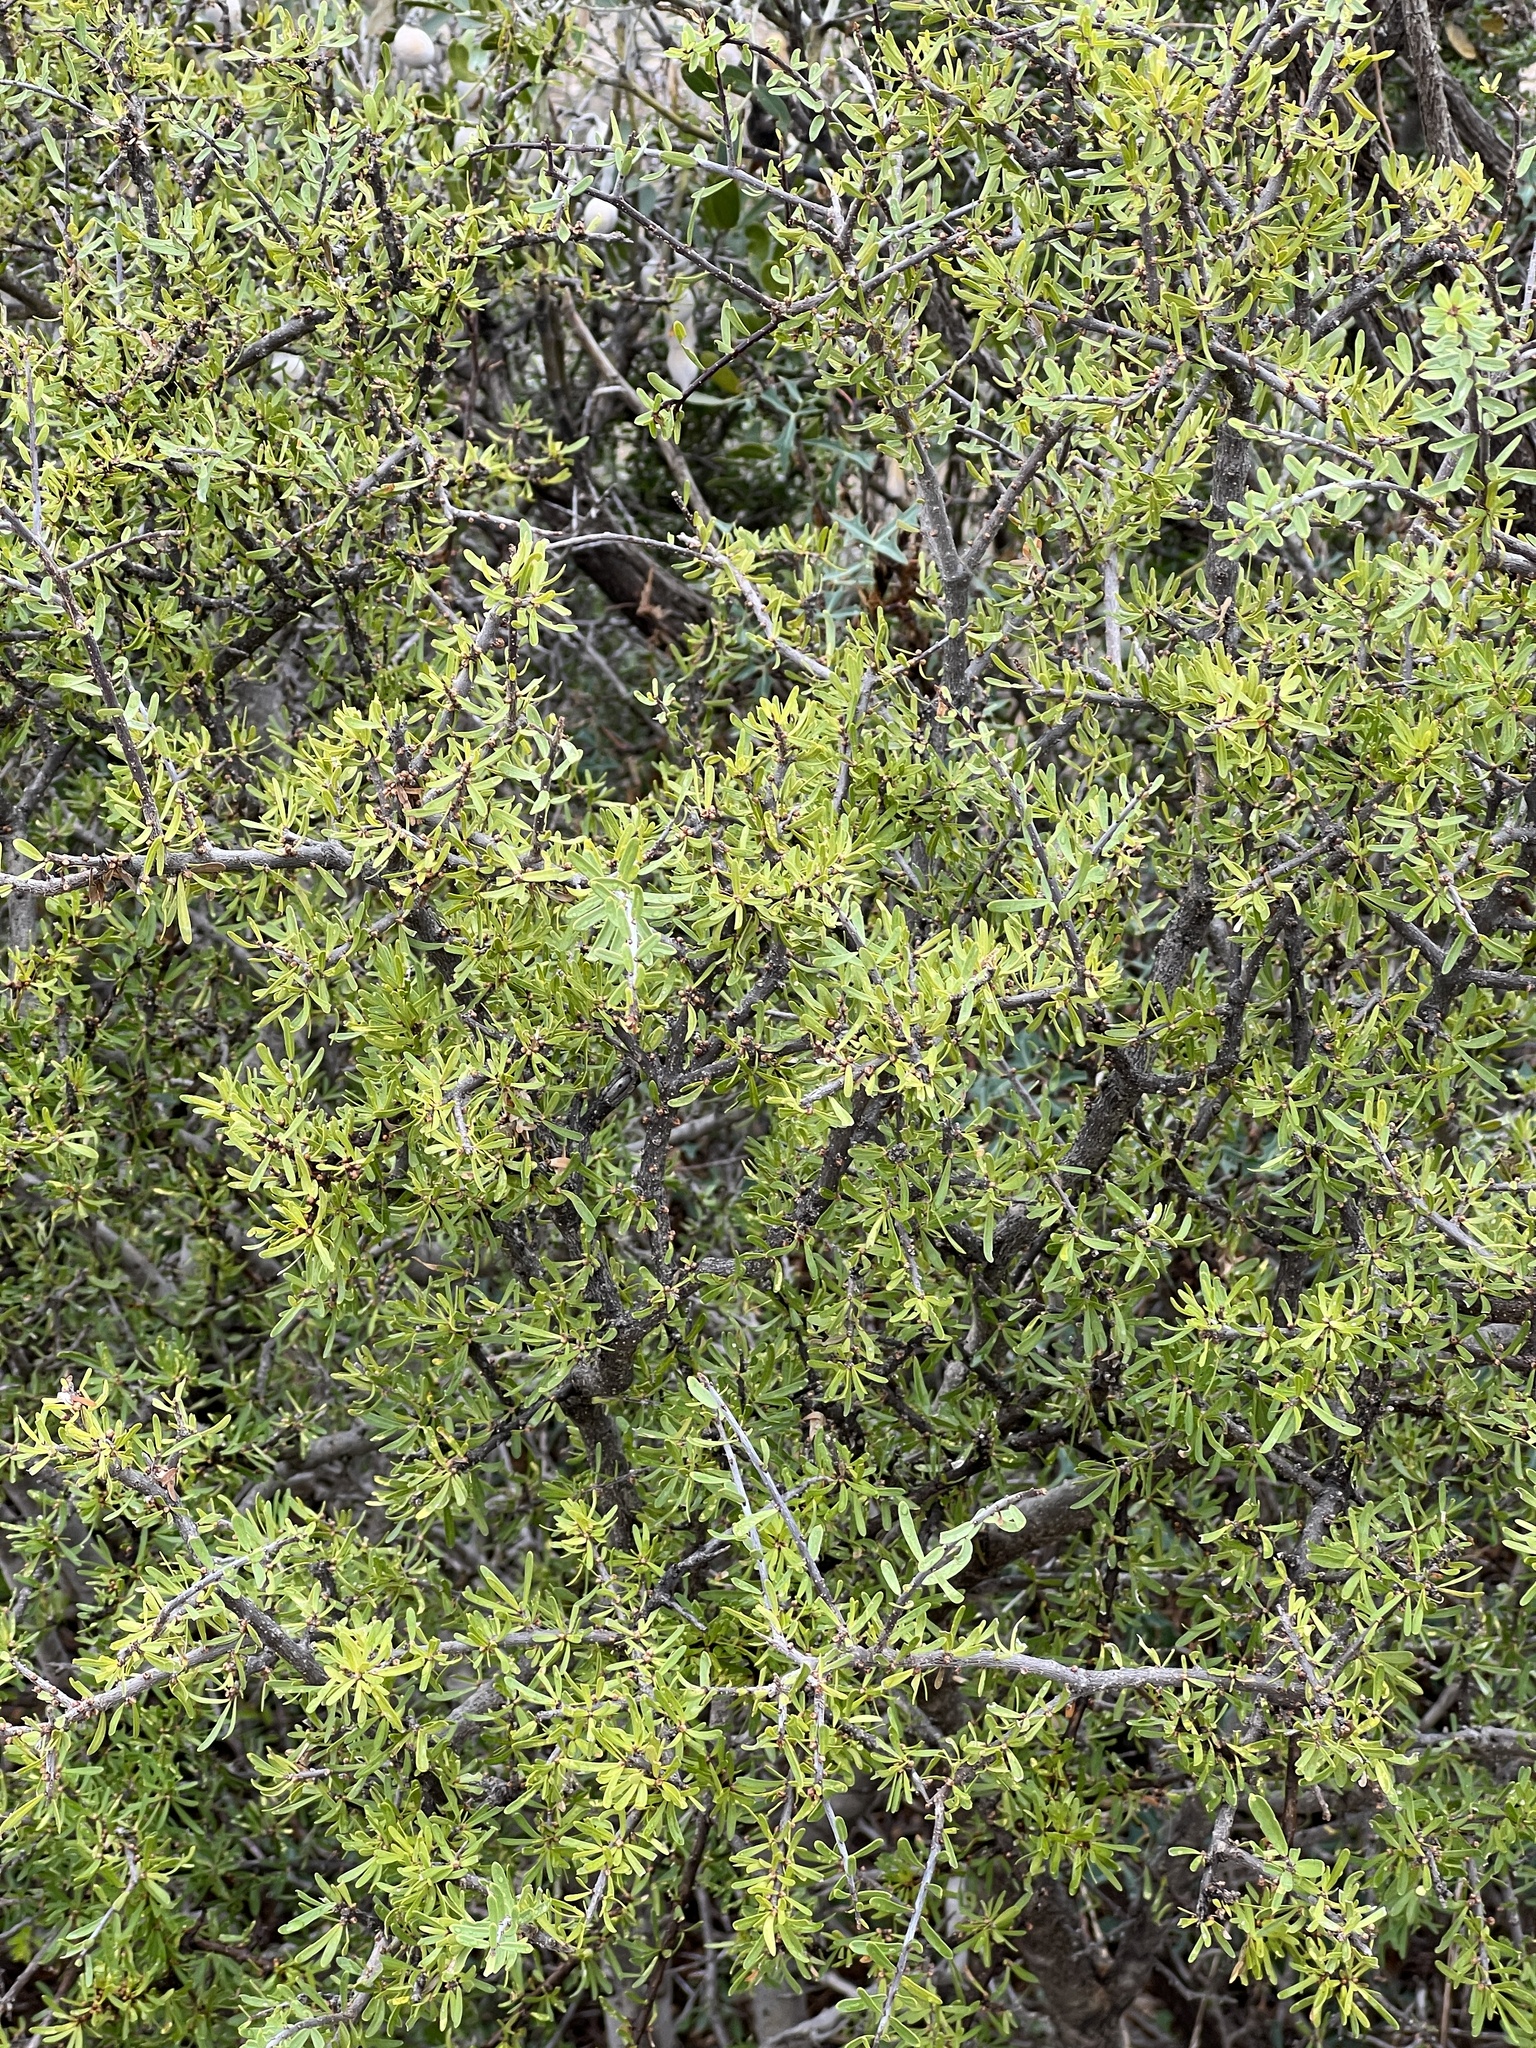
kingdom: Plantae
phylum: Tracheophyta
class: Magnoliopsida
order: Lamiales
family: Oleaceae
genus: Forestiera
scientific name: Forestiera angustifolia
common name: Elbowbush
